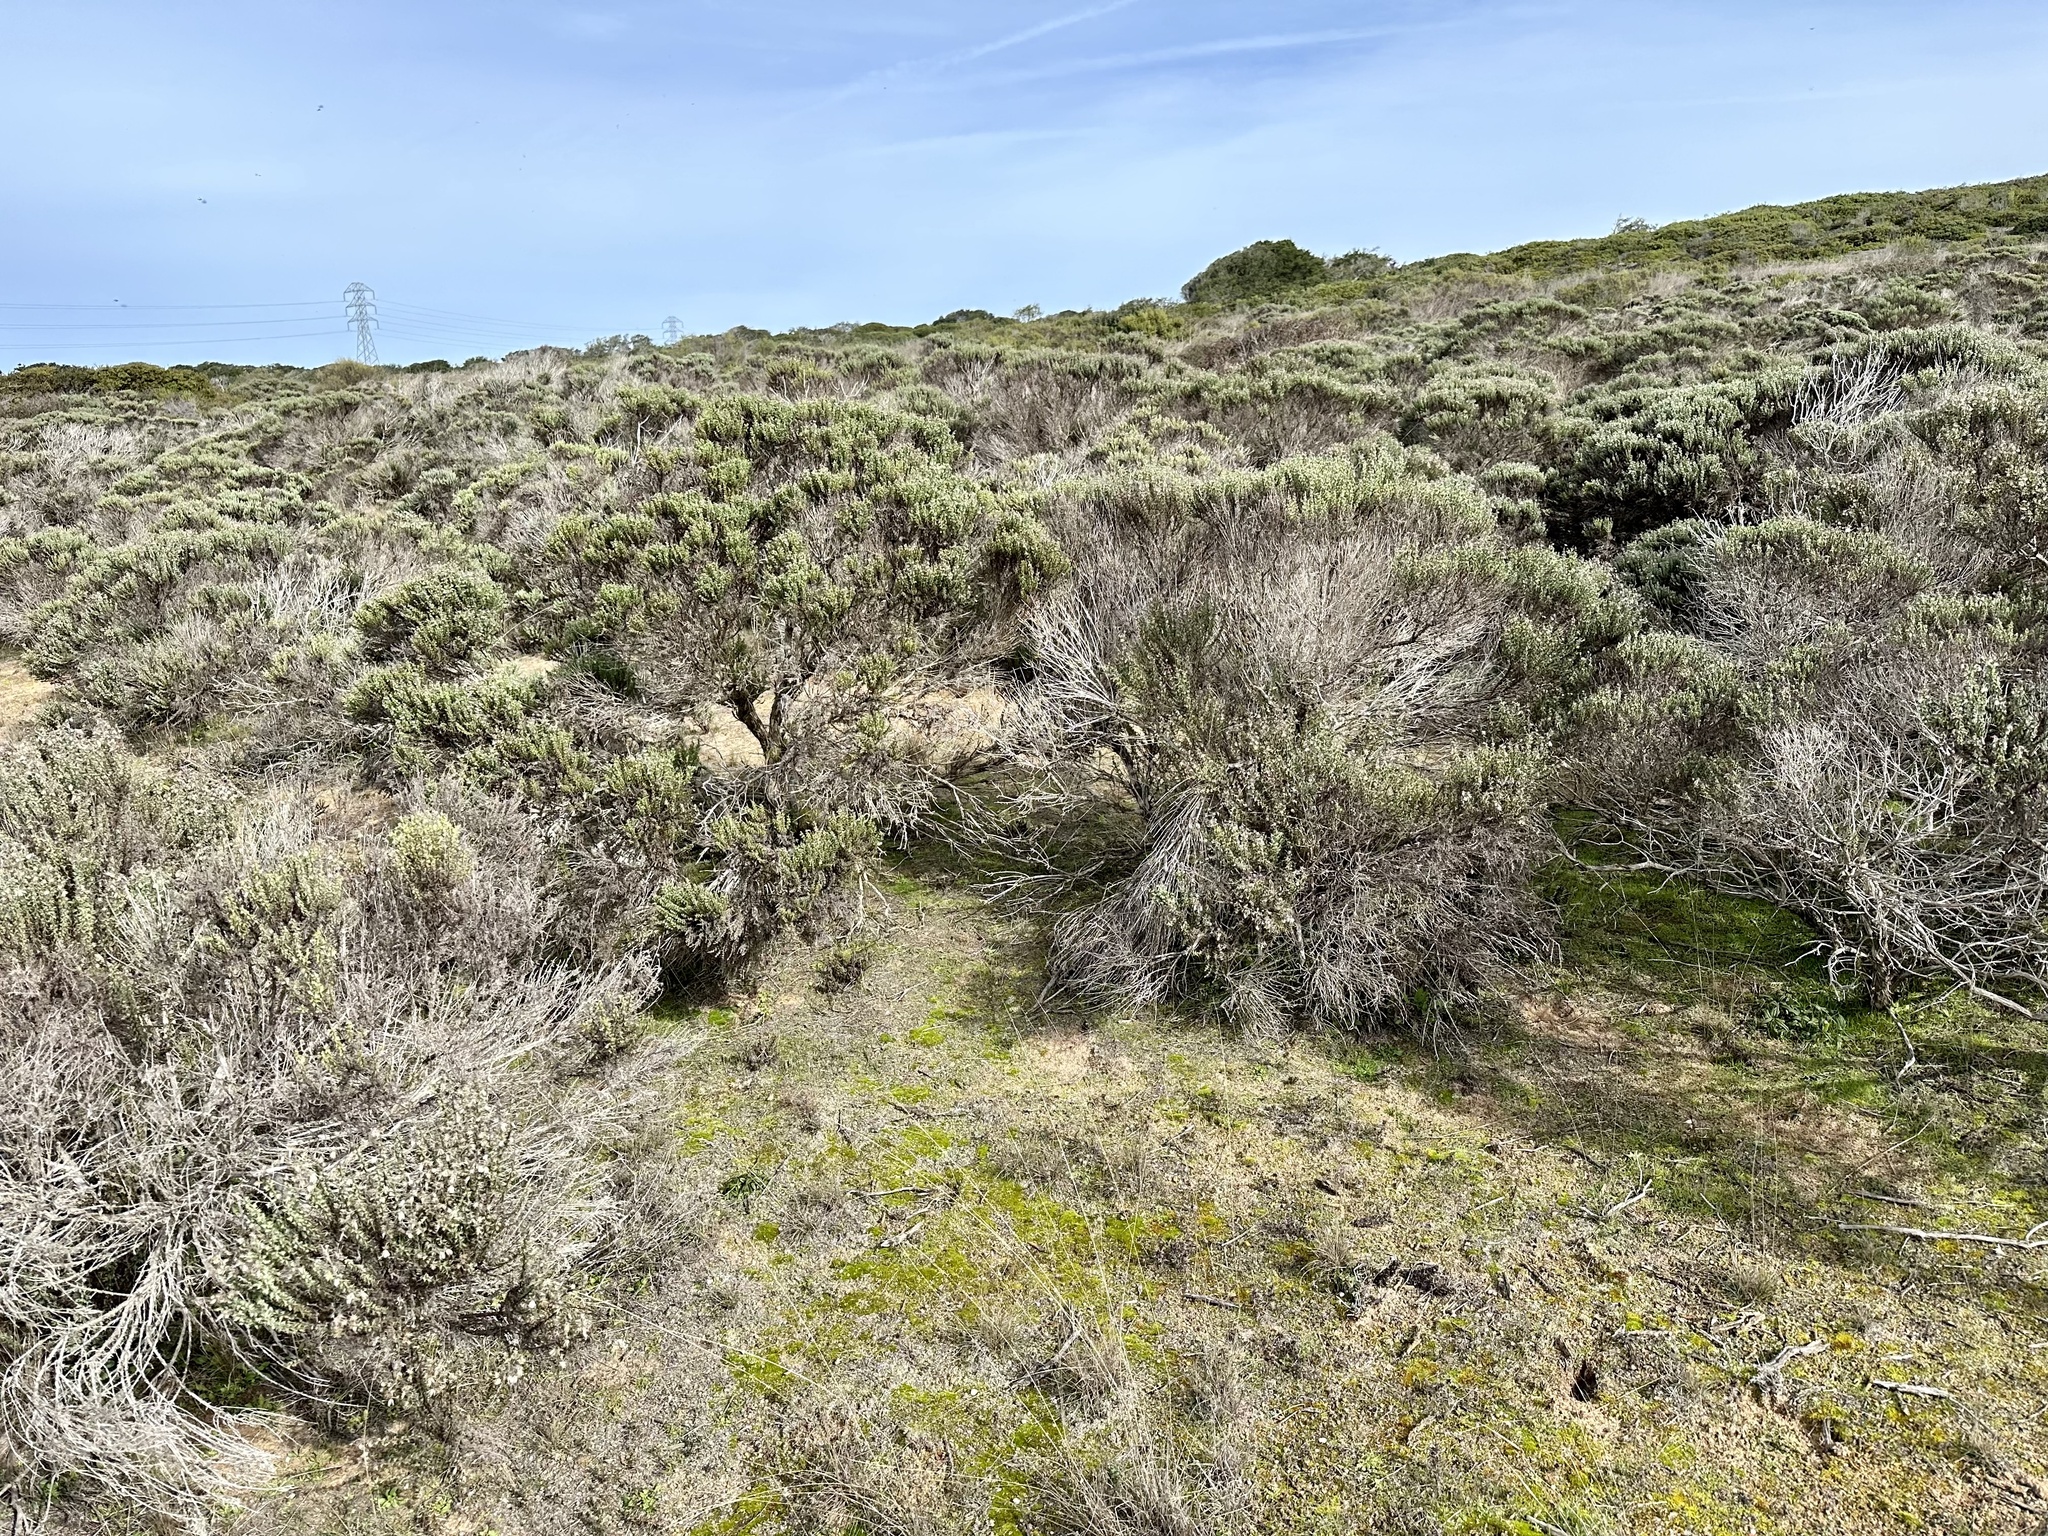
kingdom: Plantae
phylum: Tracheophyta
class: Magnoliopsida
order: Asterales
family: Asteraceae
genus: Ericameria
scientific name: Ericameria ericoides
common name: California goldenbush
